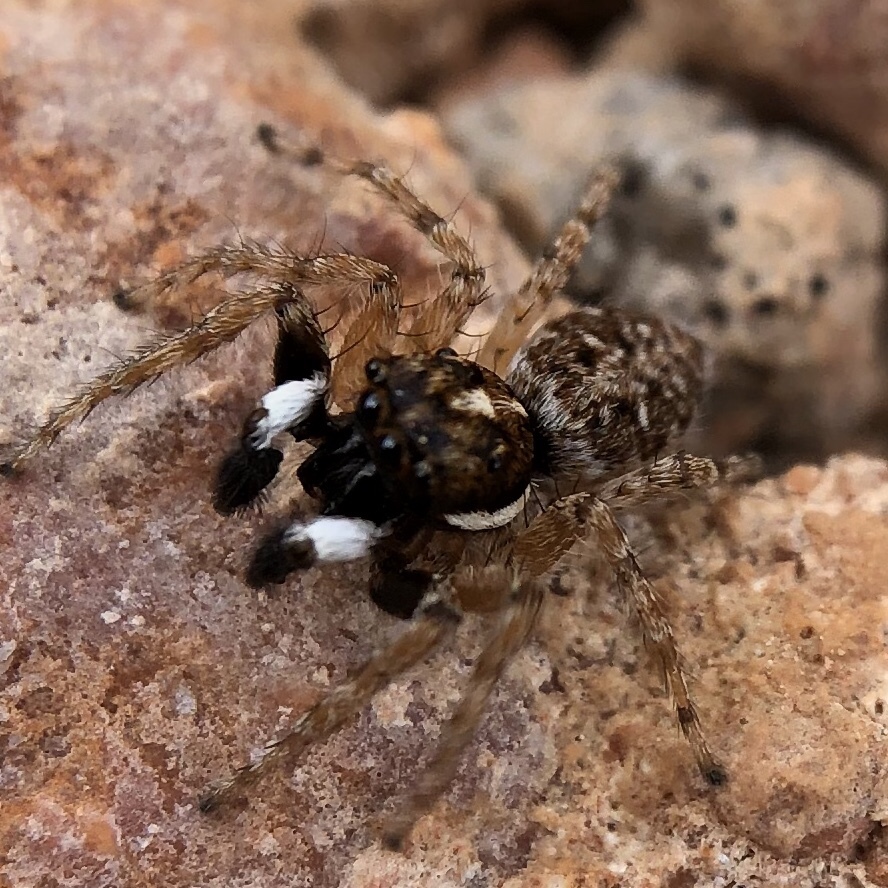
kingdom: Animalia
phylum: Arthropoda
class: Arachnida
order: Araneae
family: Salticidae
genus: Menemerus
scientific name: Menemerus semilimbatus
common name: Jumping spider
